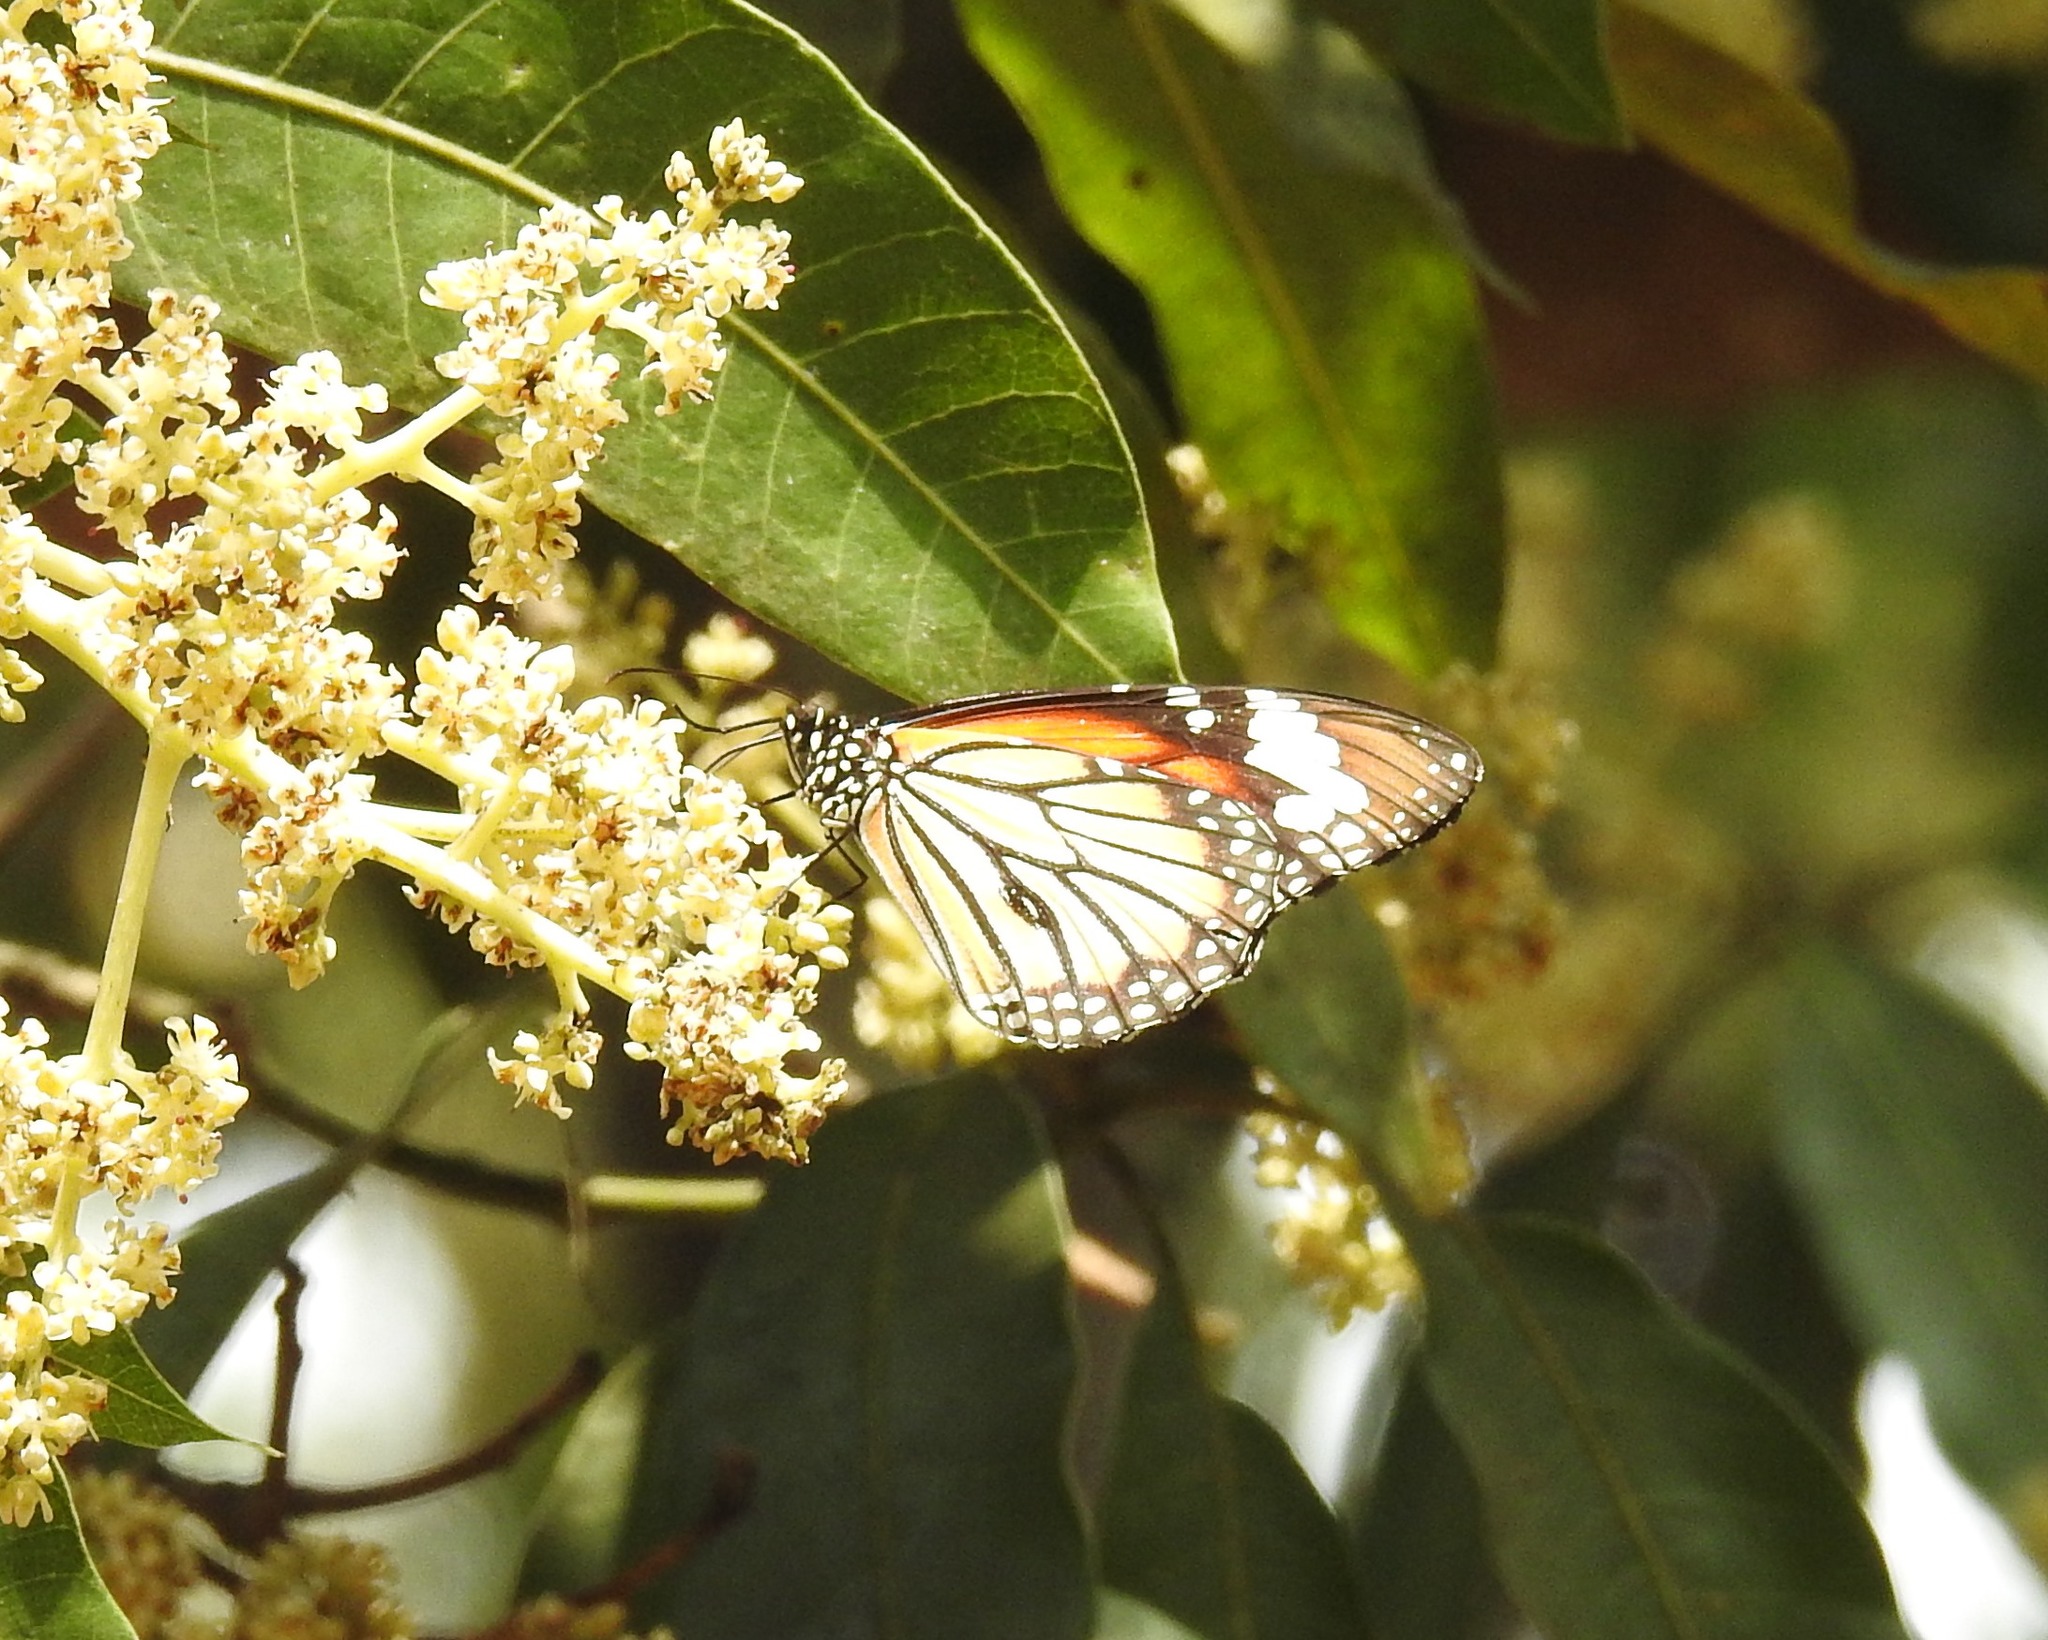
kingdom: Animalia
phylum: Arthropoda
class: Insecta
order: Lepidoptera
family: Nymphalidae
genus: Danaus
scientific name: Danaus genutia
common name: Common tiger butterfly
